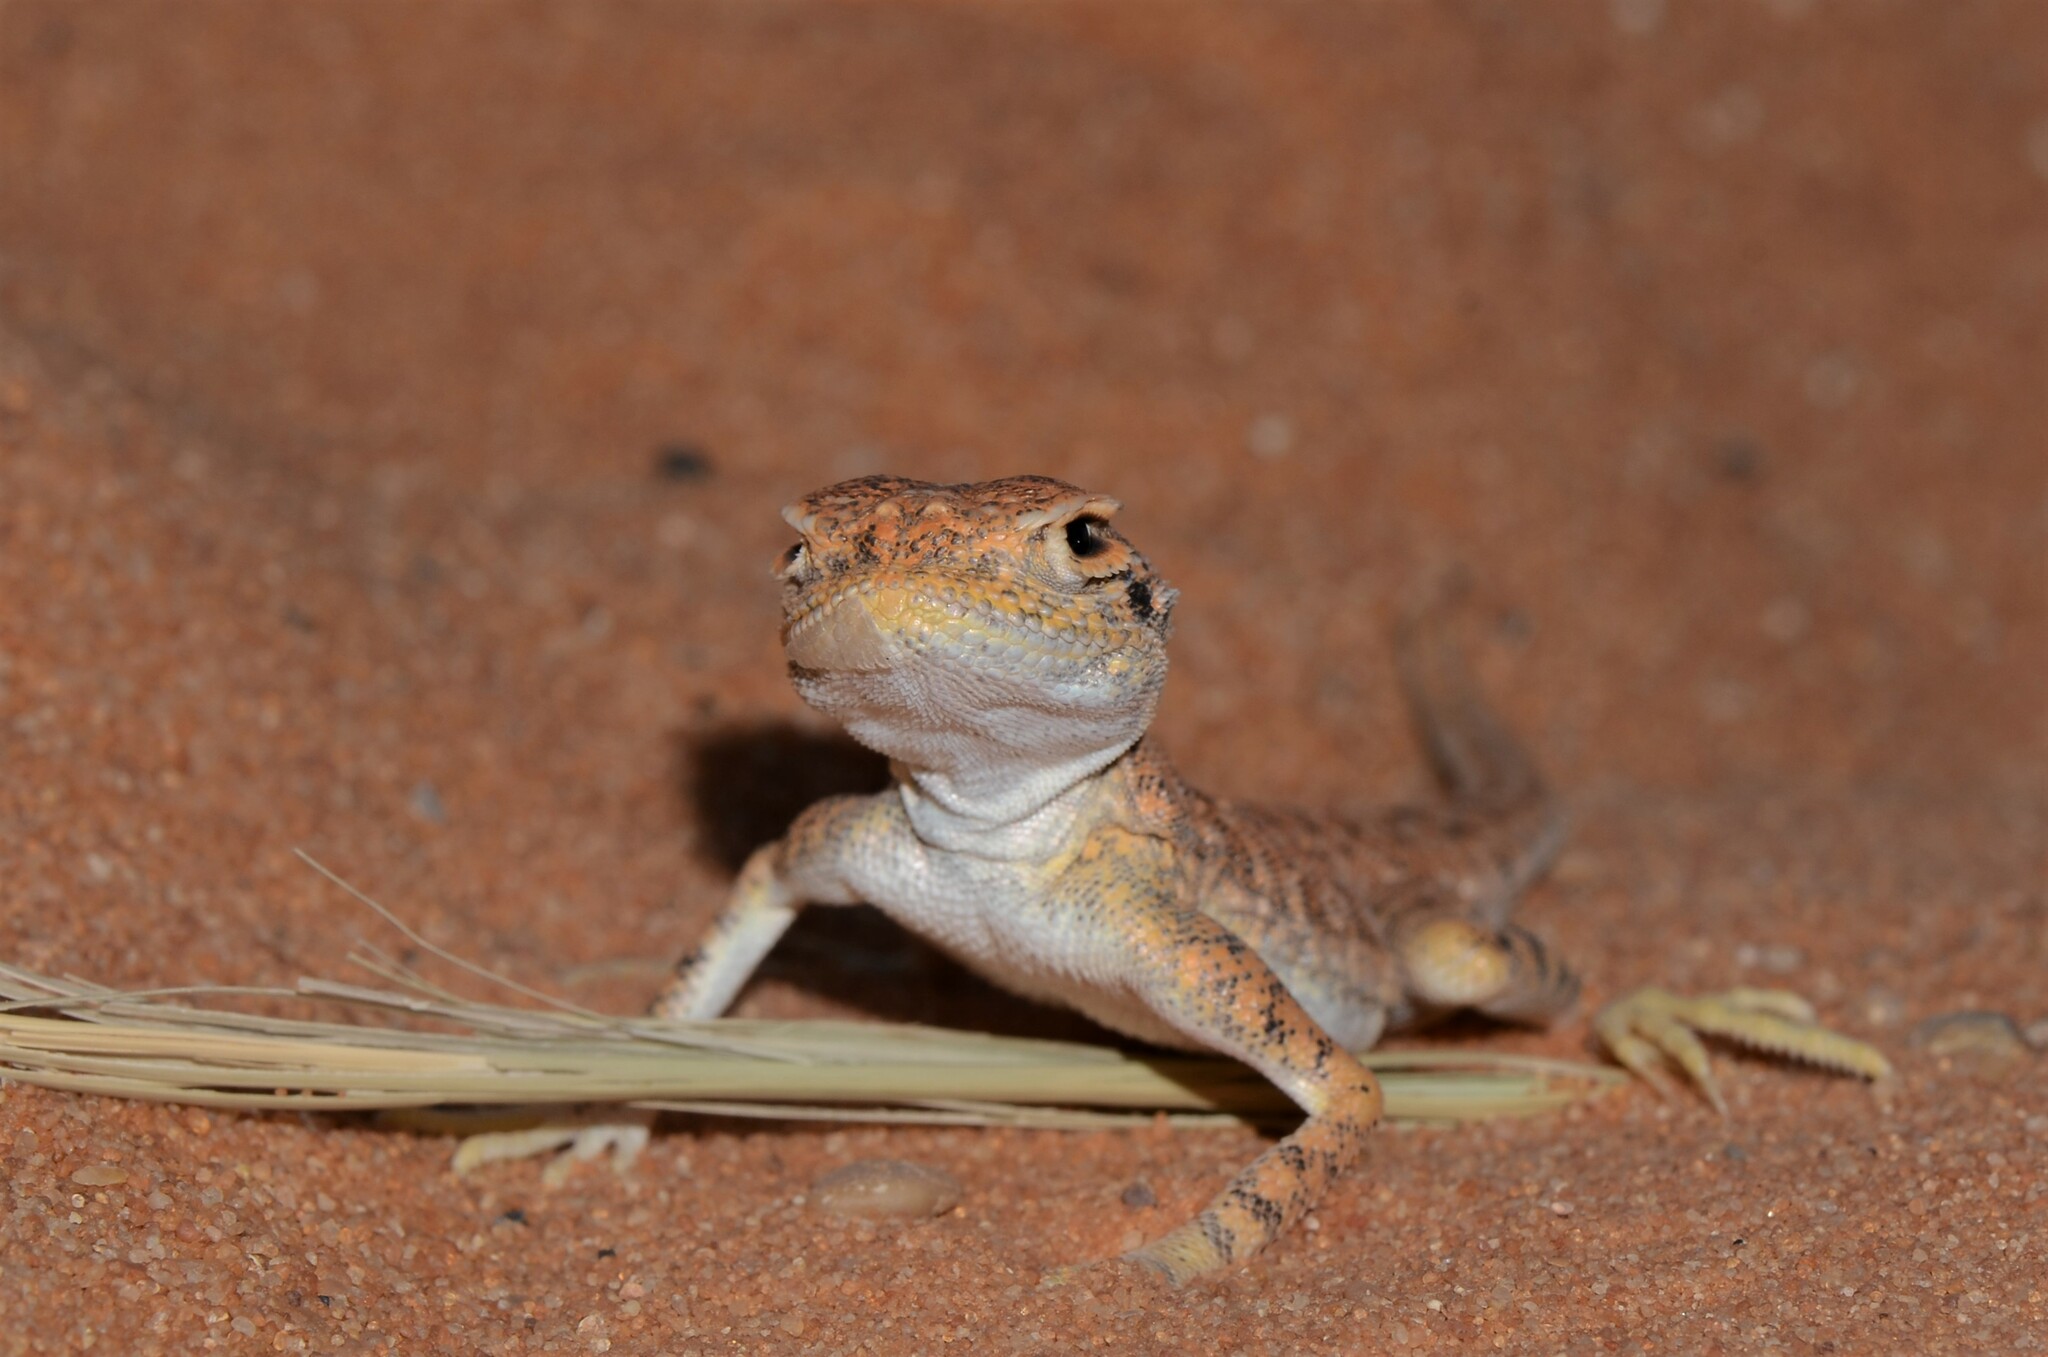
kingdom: Animalia
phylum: Chordata
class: Squamata
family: Agamidae
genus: Phrynocephalus
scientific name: Phrynocephalus arabicus
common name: Arabian toad-headed agama
